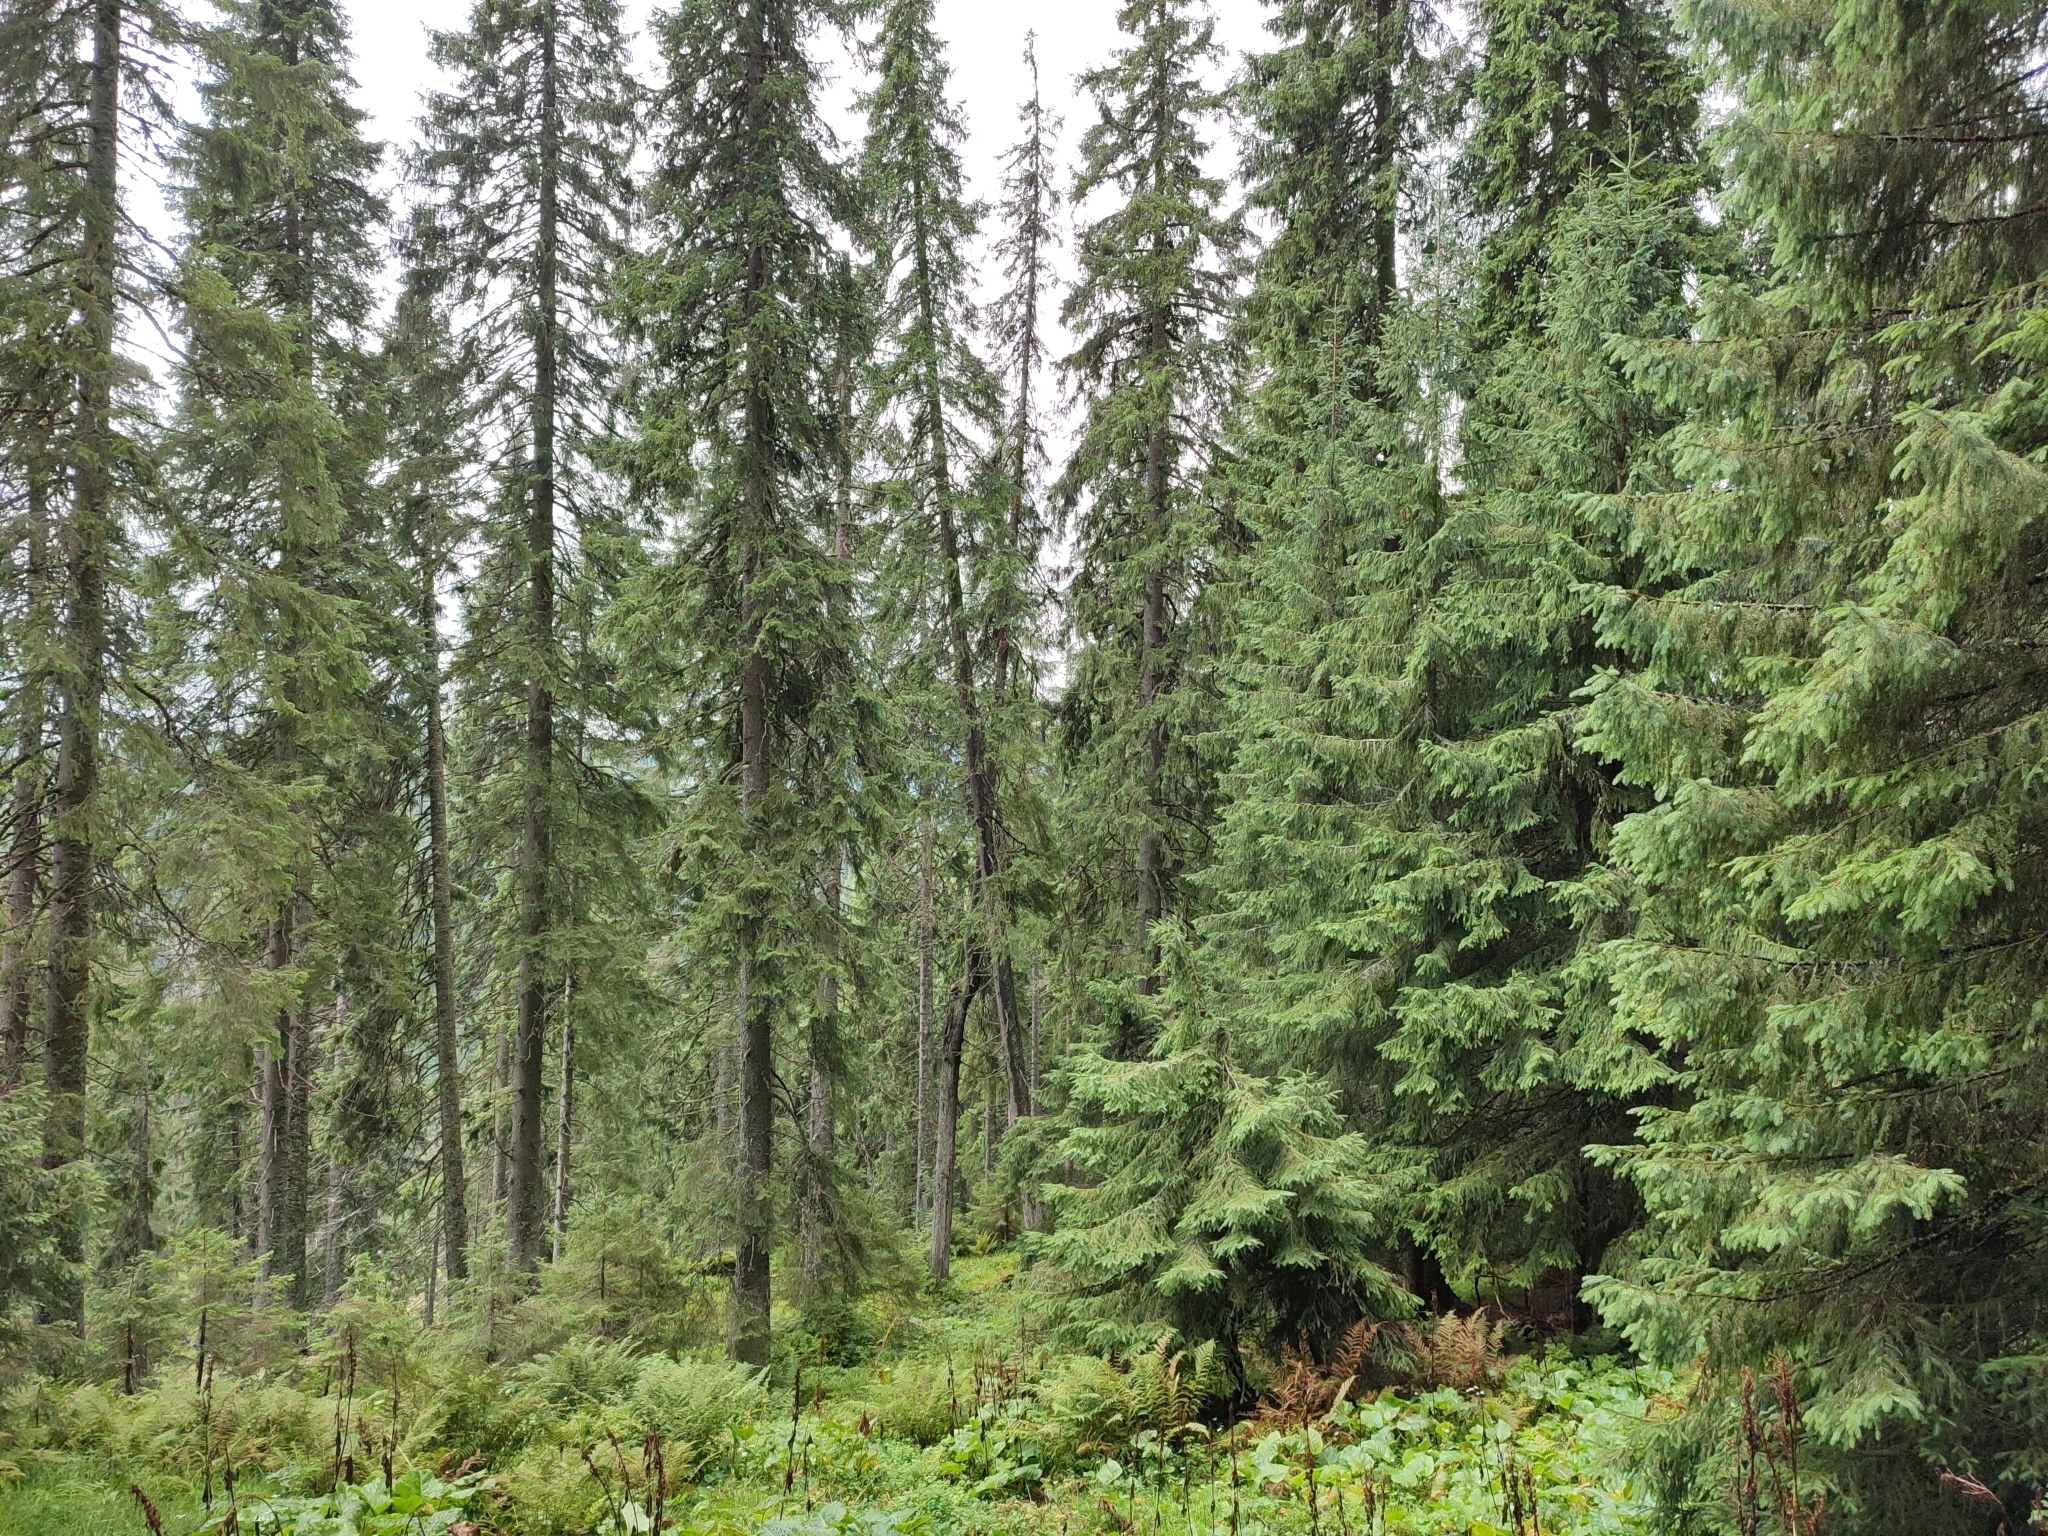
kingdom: Plantae
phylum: Tracheophyta
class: Pinopsida
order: Pinales
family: Pinaceae
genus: Picea
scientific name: Picea abies
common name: Norway spruce
